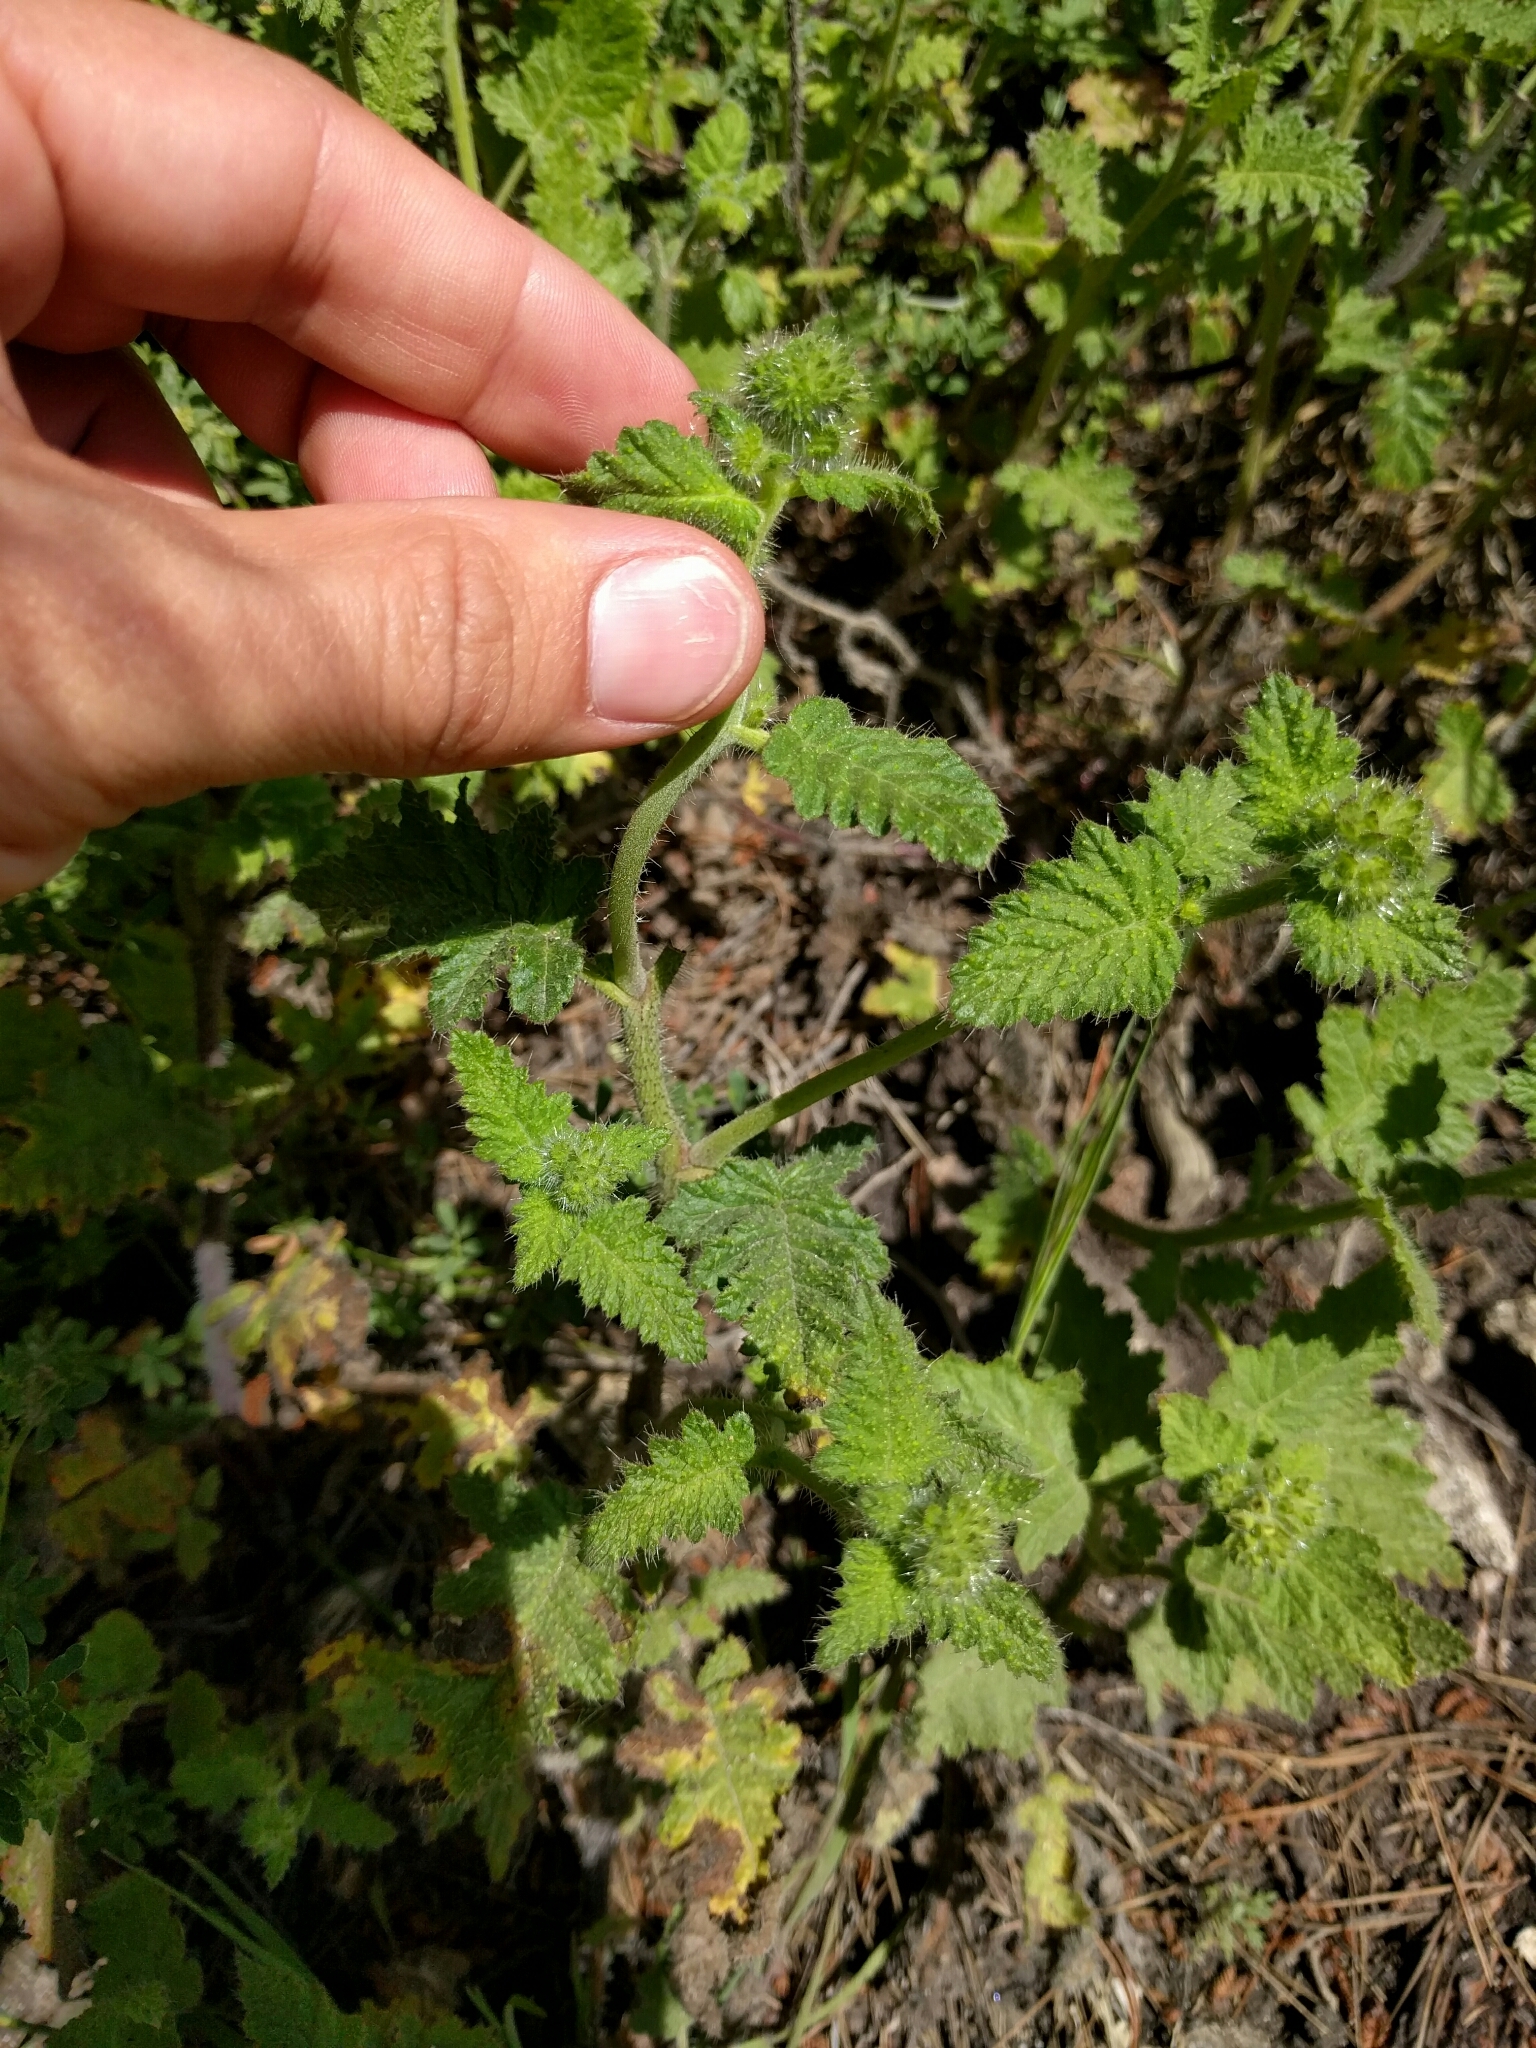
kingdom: Plantae
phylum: Tracheophyta
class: Magnoliopsida
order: Boraginales
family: Hydrophyllaceae
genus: Phacelia
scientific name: Phacelia malvifolia
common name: Mallow-leaf phacelia
